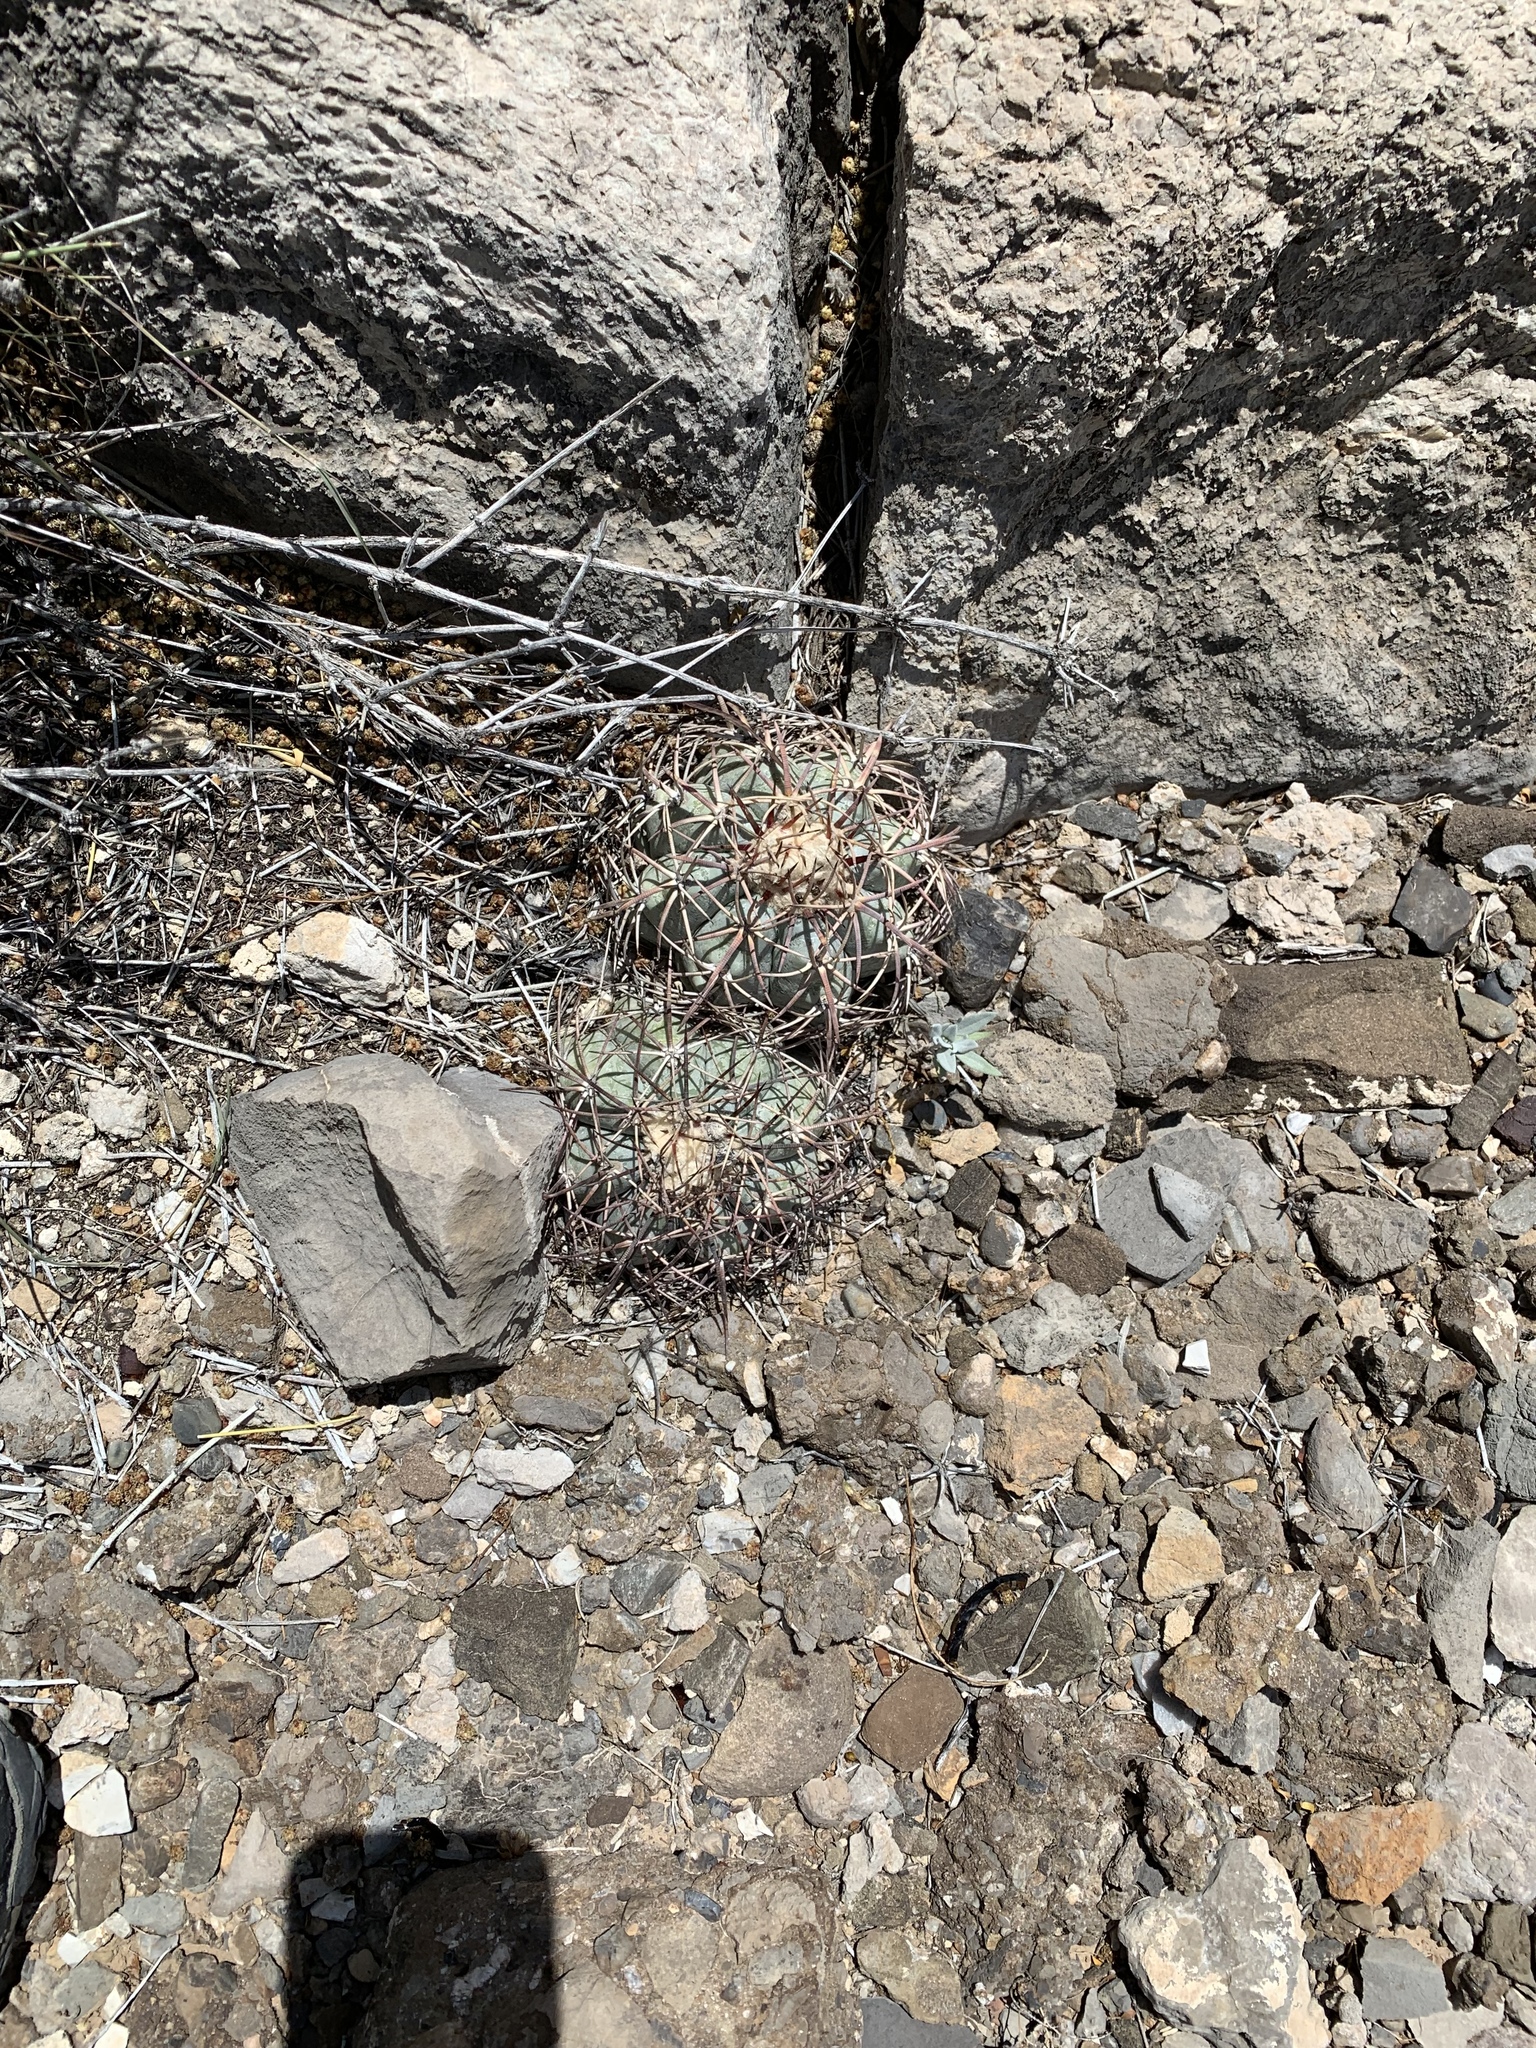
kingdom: Plantae
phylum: Tracheophyta
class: Magnoliopsida
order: Caryophyllales
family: Cactaceae
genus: Echinocactus
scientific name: Echinocactus horizonthalonius
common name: Devilshead
